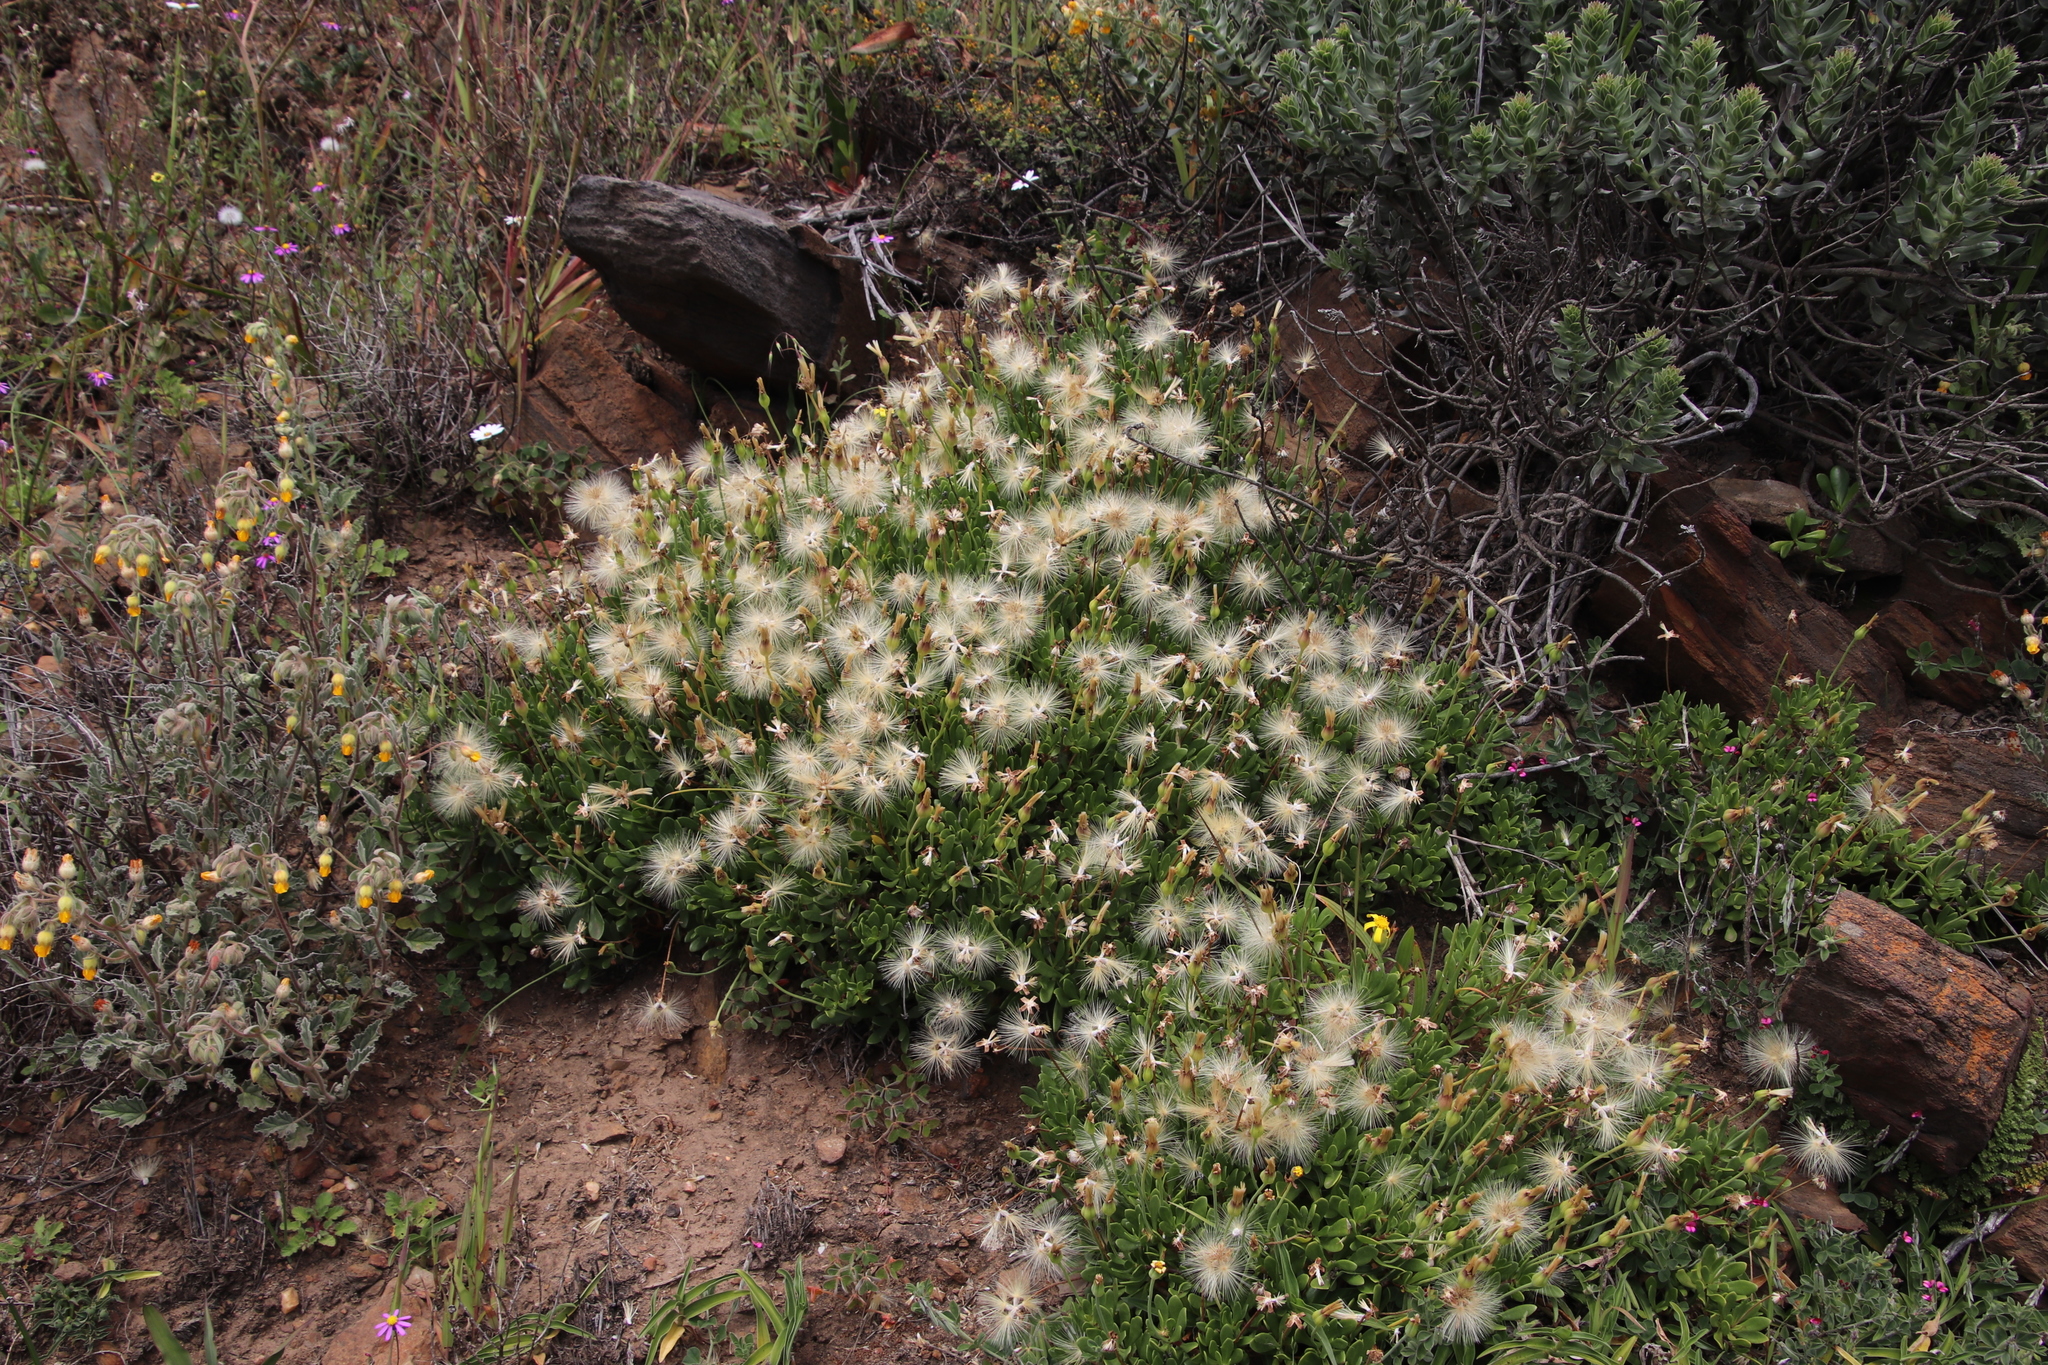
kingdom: Plantae
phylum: Tracheophyta
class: Magnoliopsida
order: Asterales
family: Asteraceae
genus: Othonna
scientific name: Othonna arborescens
